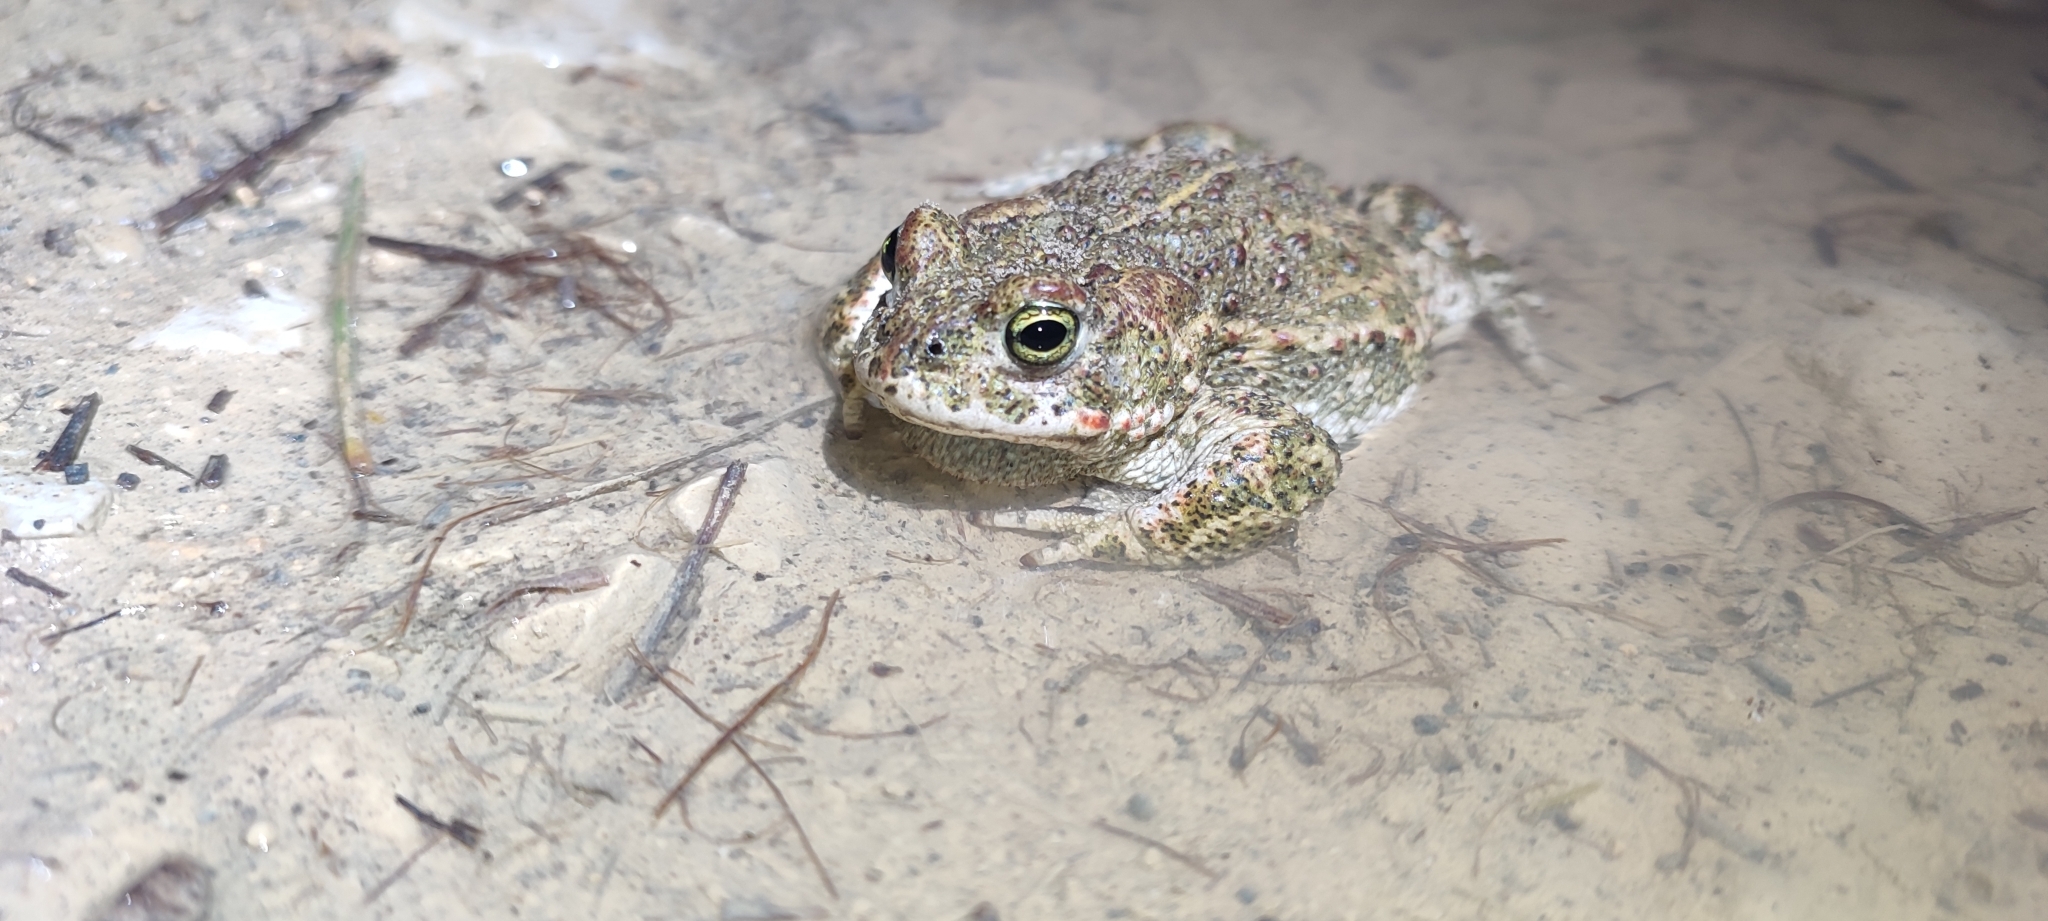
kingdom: Animalia
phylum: Chordata
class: Amphibia
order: Anura
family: Bufonidae
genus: Epidalea
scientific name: Epidalea calamita
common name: Natterjack toad
